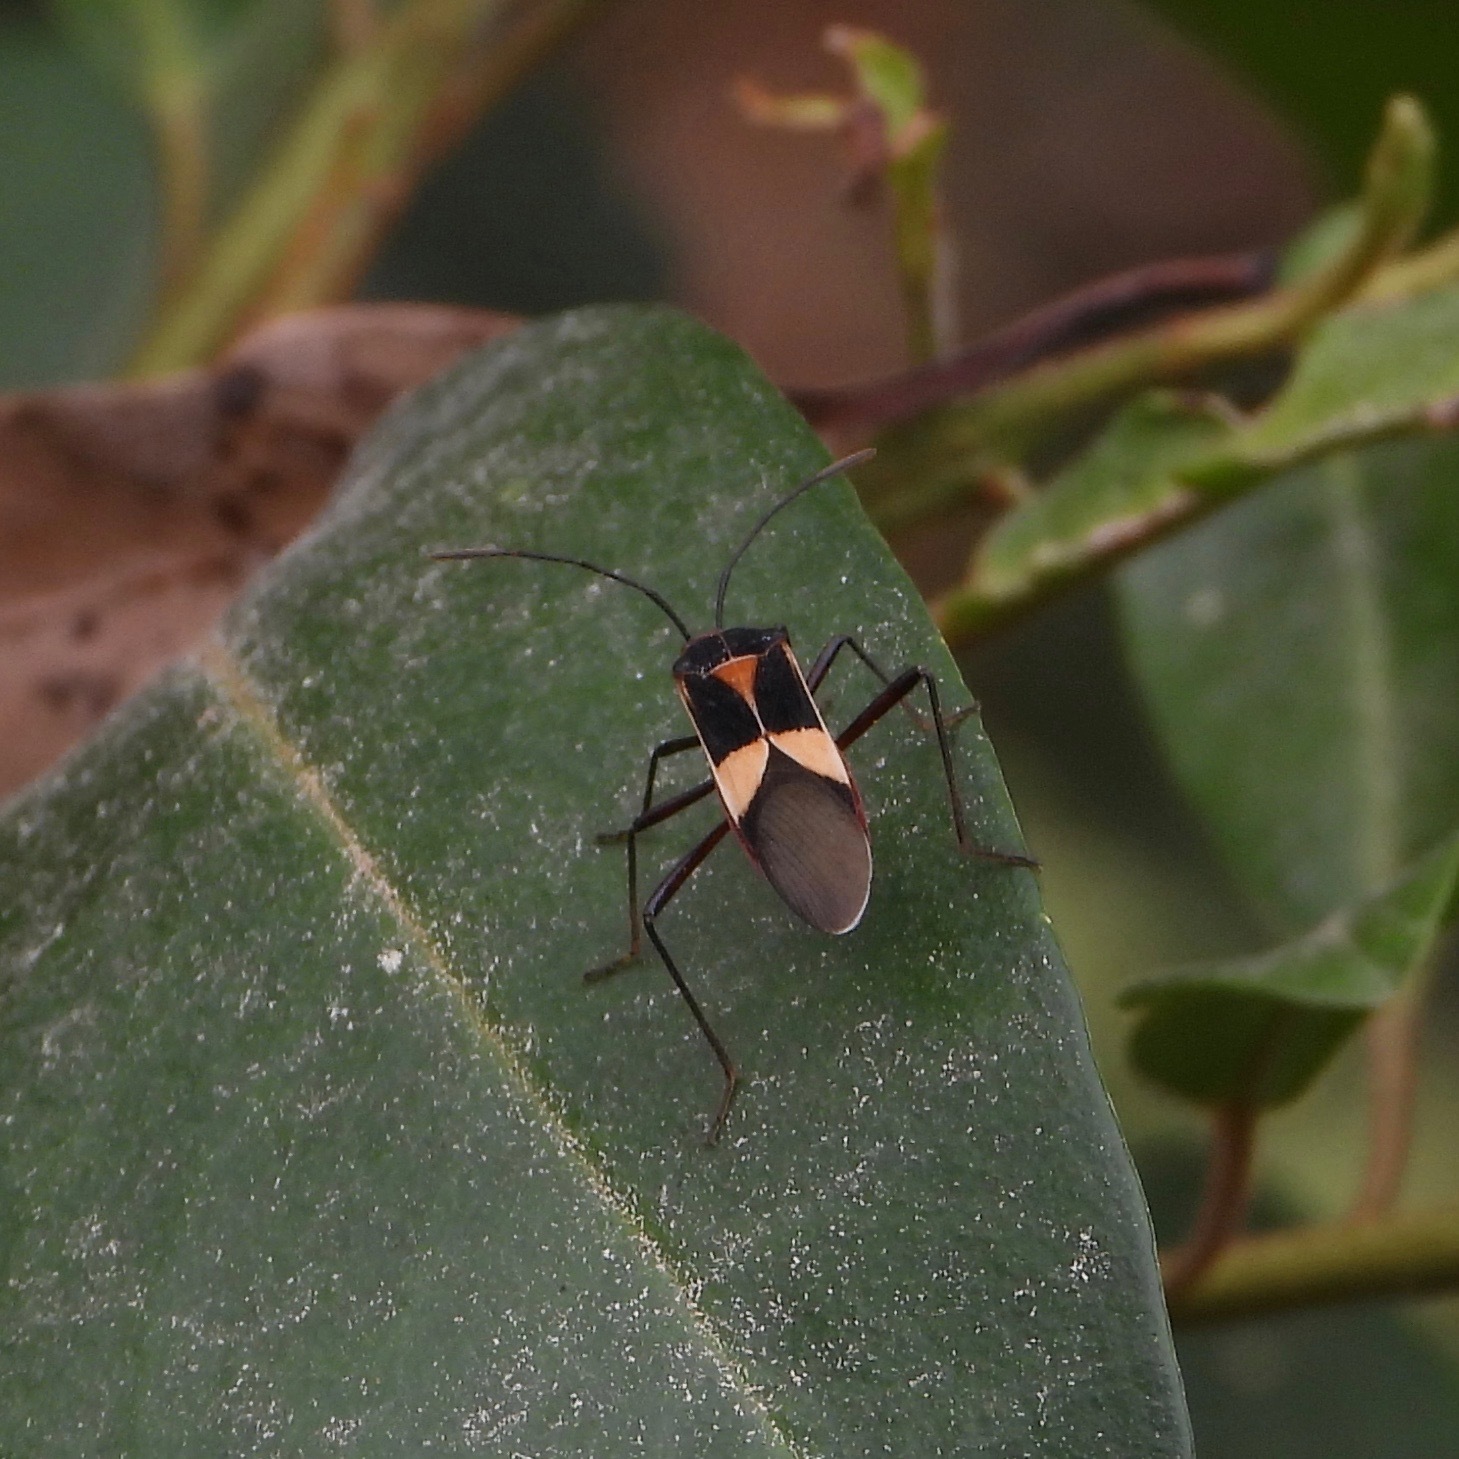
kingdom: Animalia
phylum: Arthropoda
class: Insecta
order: Hemiptera
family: Coreidae
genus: Hypselonotus
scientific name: Hypselonotus interruptus
